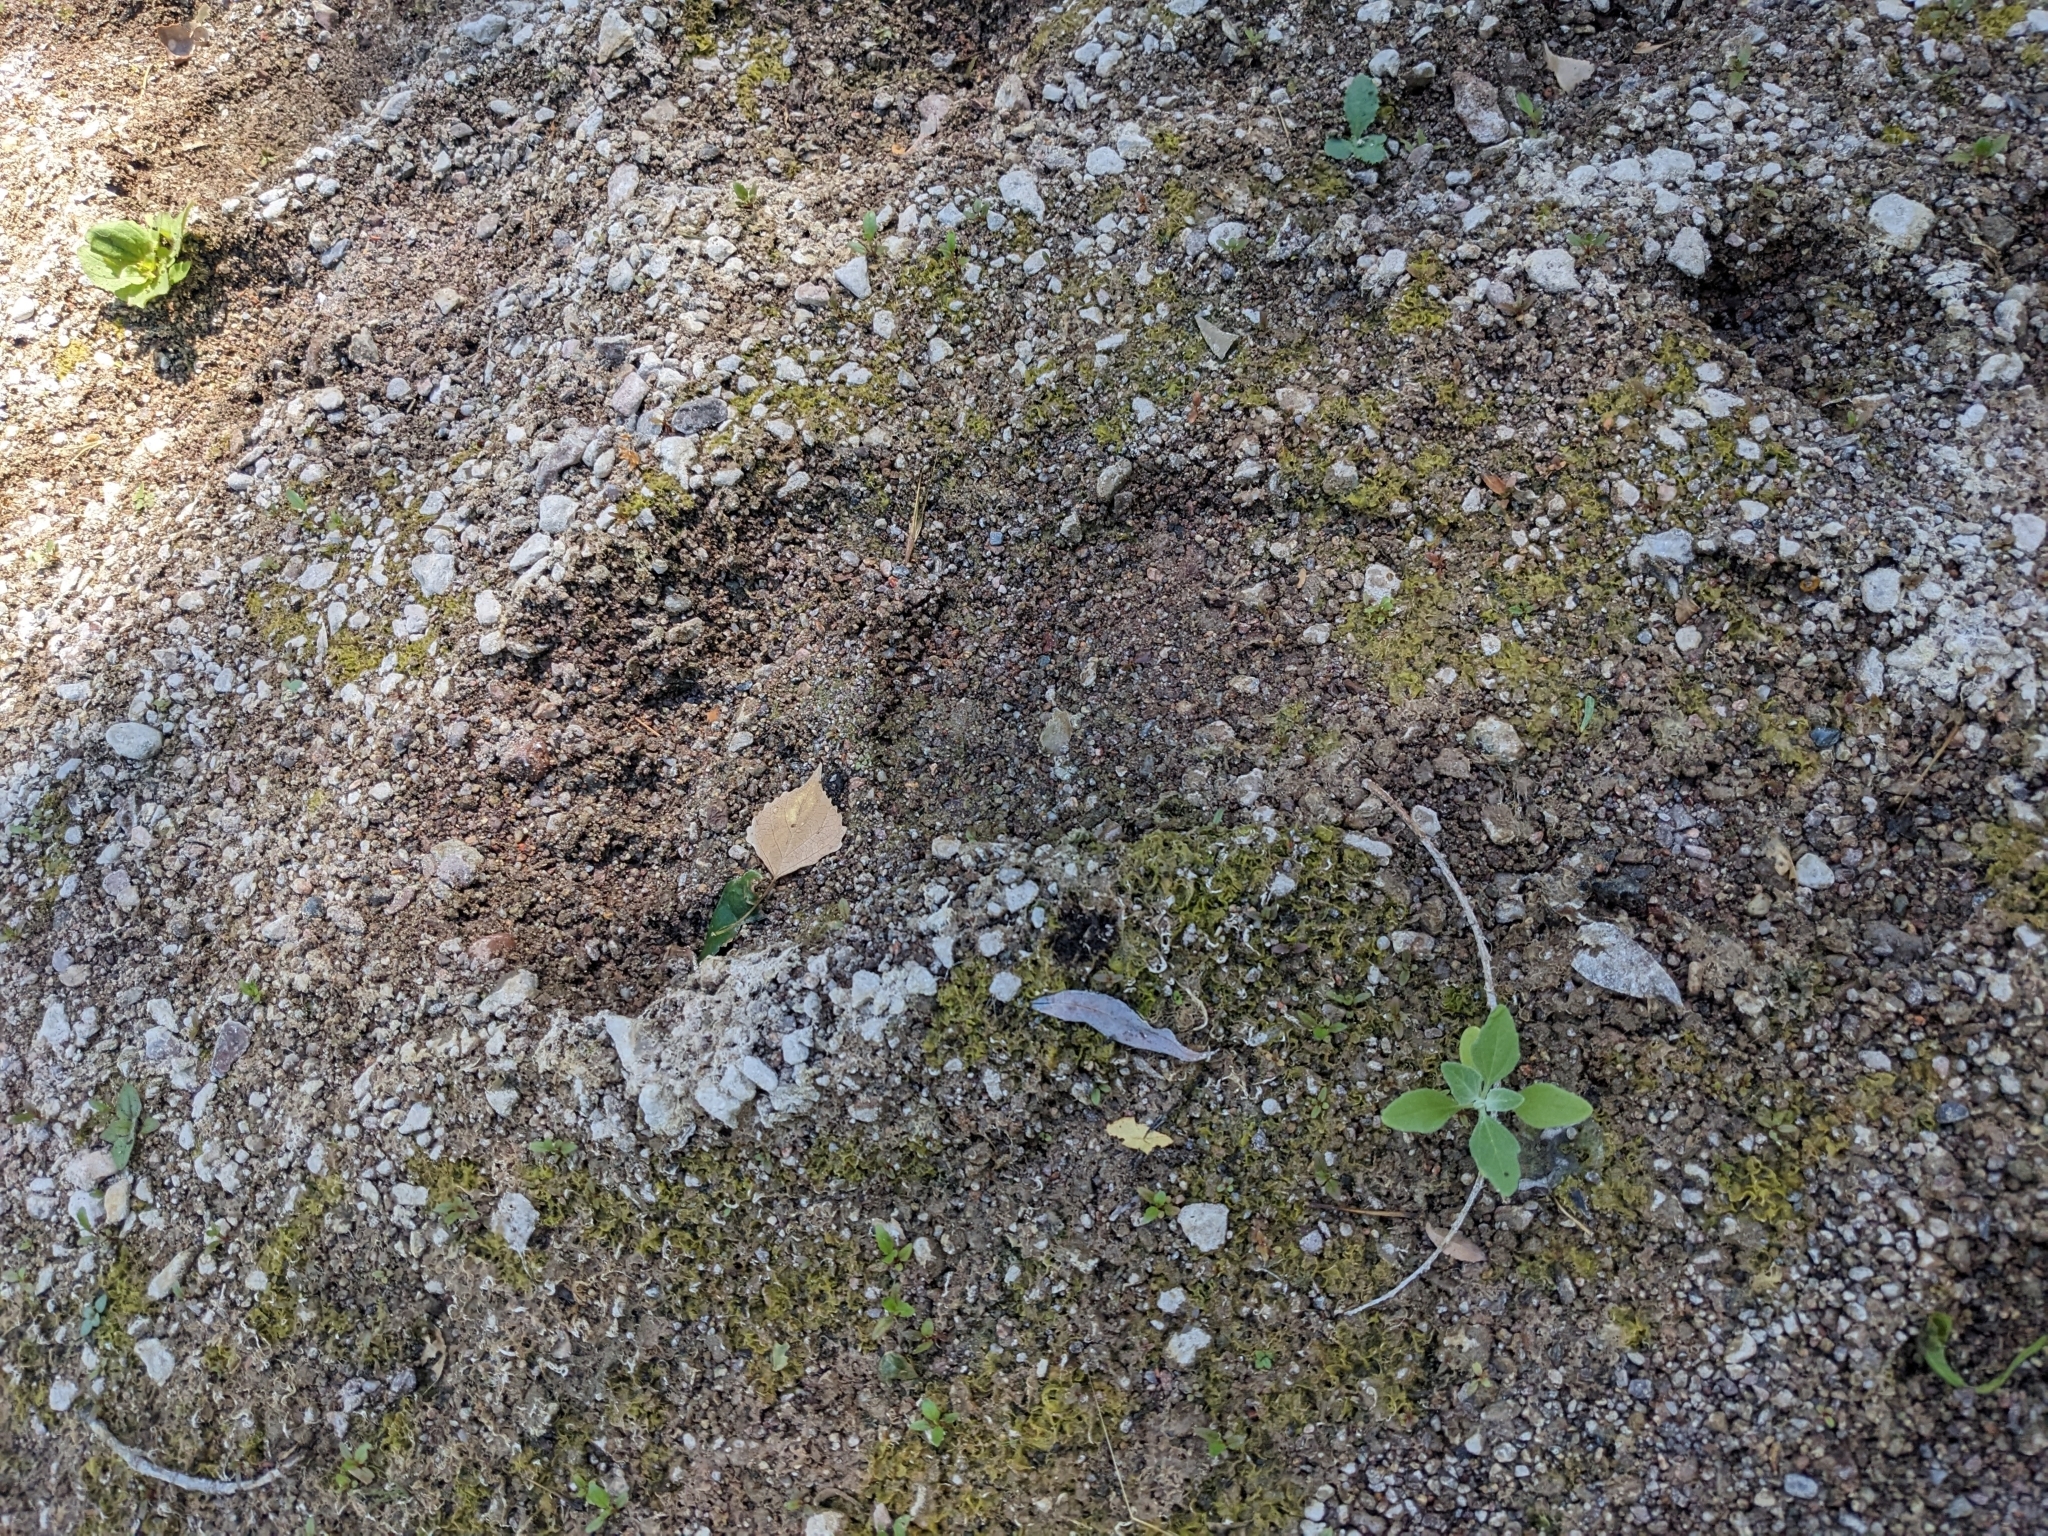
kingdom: Animalia
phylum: Chordata
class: Mammalia
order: Carnivora
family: Ursidae
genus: Ursus
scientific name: Ursus americanus
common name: American black bear
